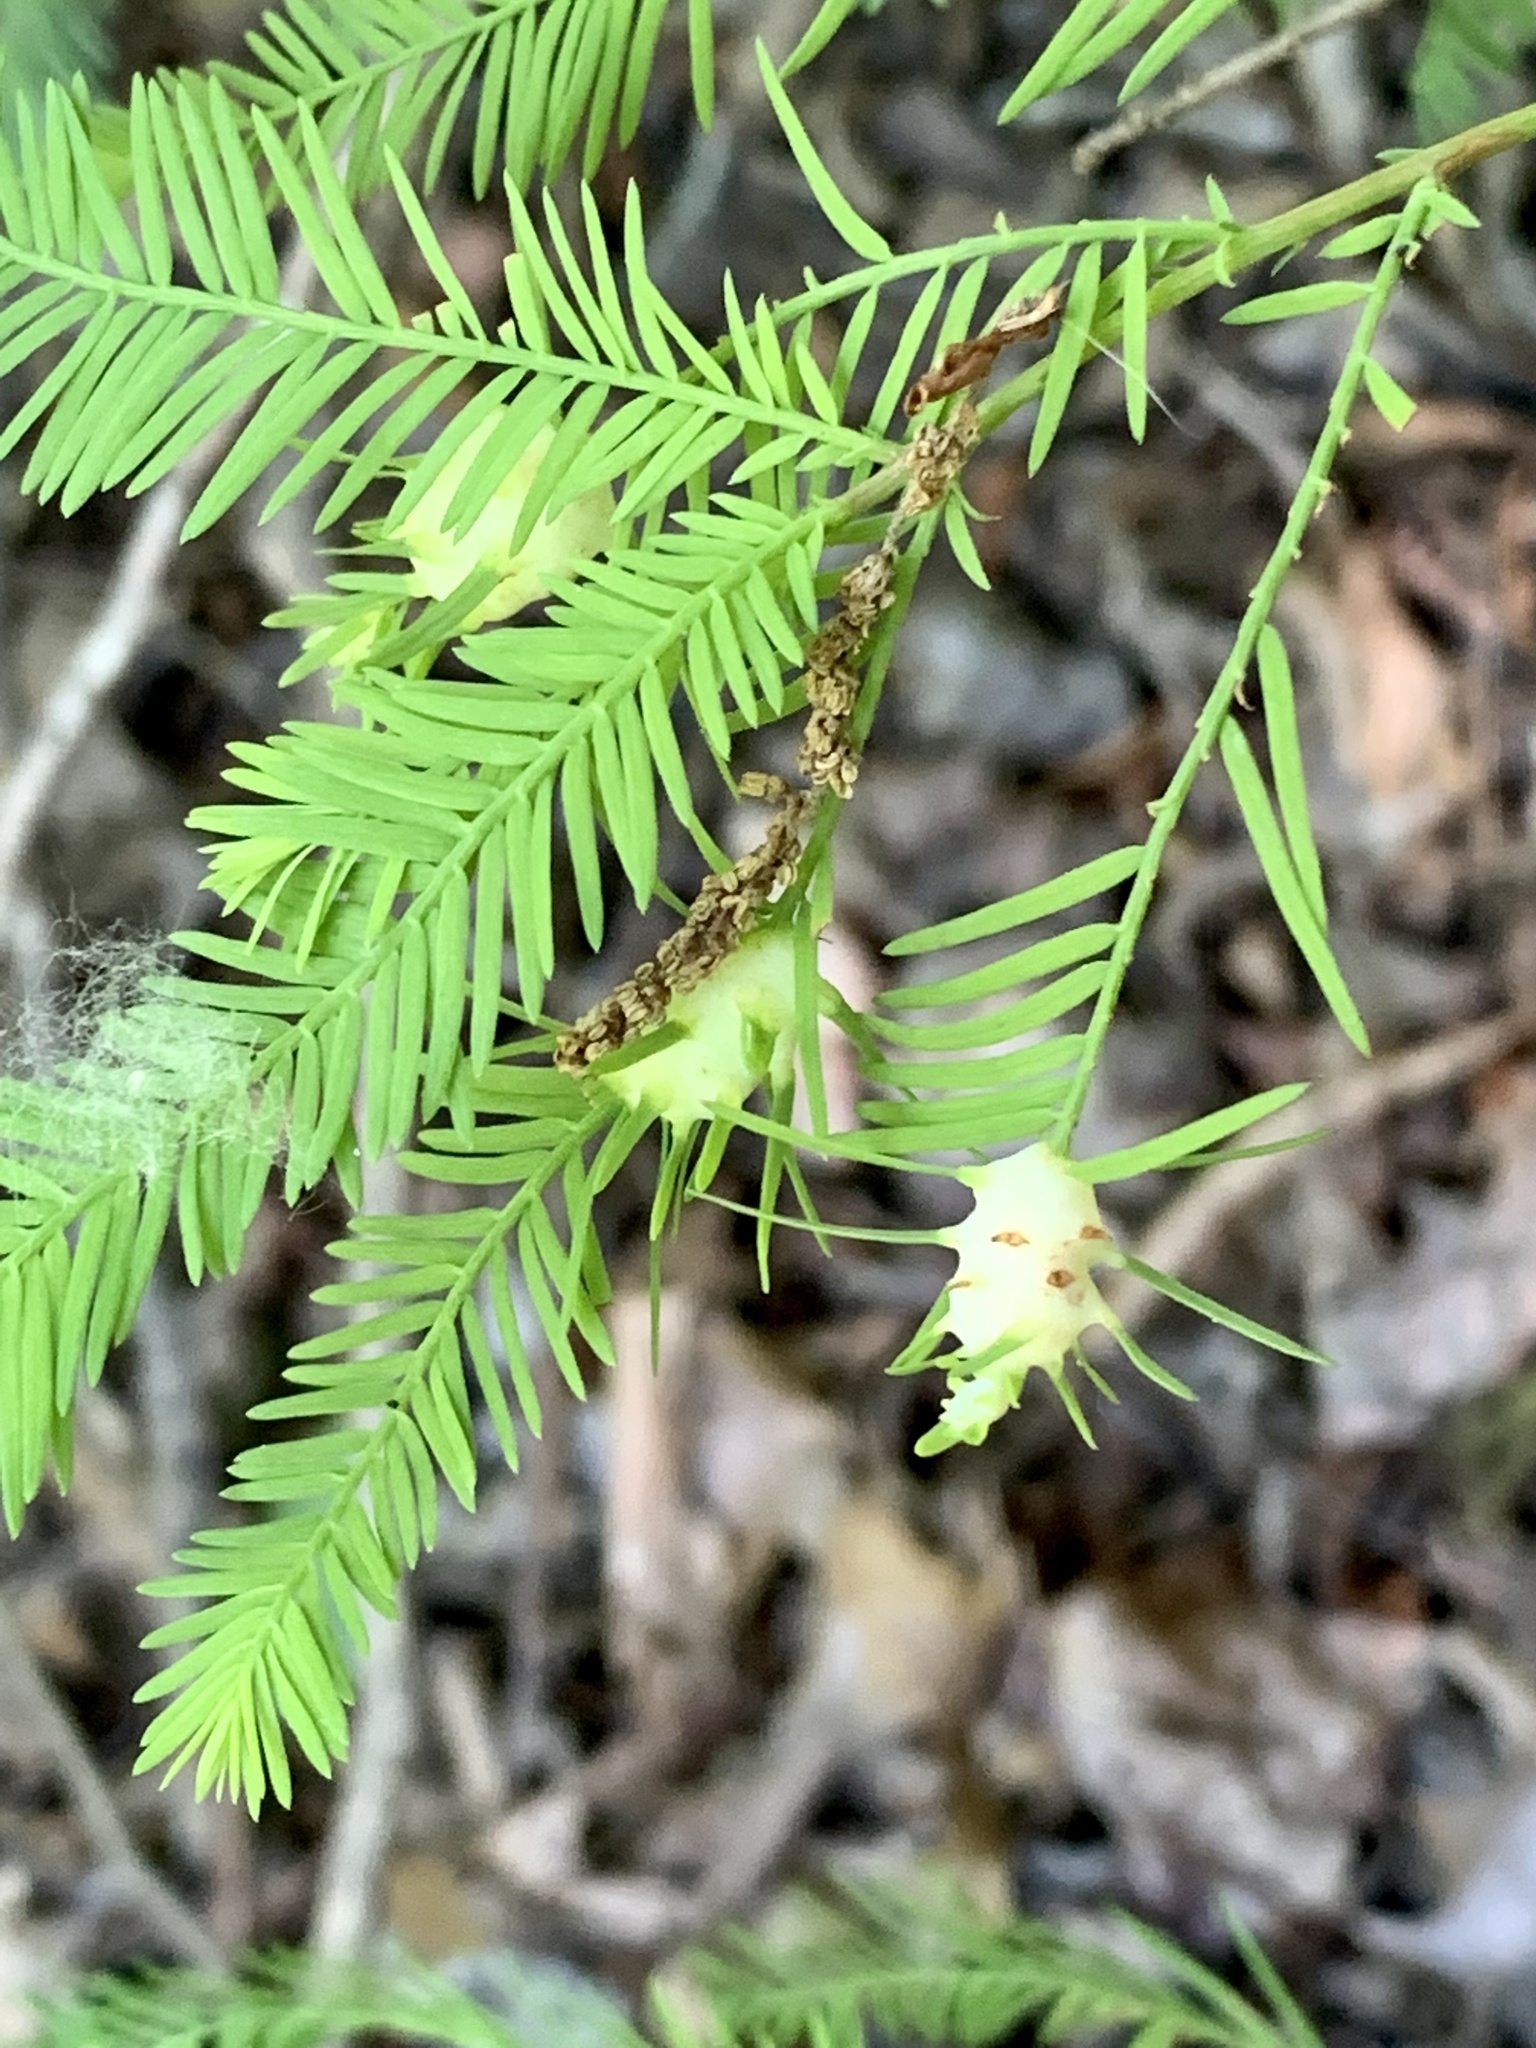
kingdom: Animalia
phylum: Arthropoda
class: Insecta
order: Diptera
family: Cecidomyiidae
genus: Taxodiomyia
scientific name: Taxodiomyia cupressiananassa
